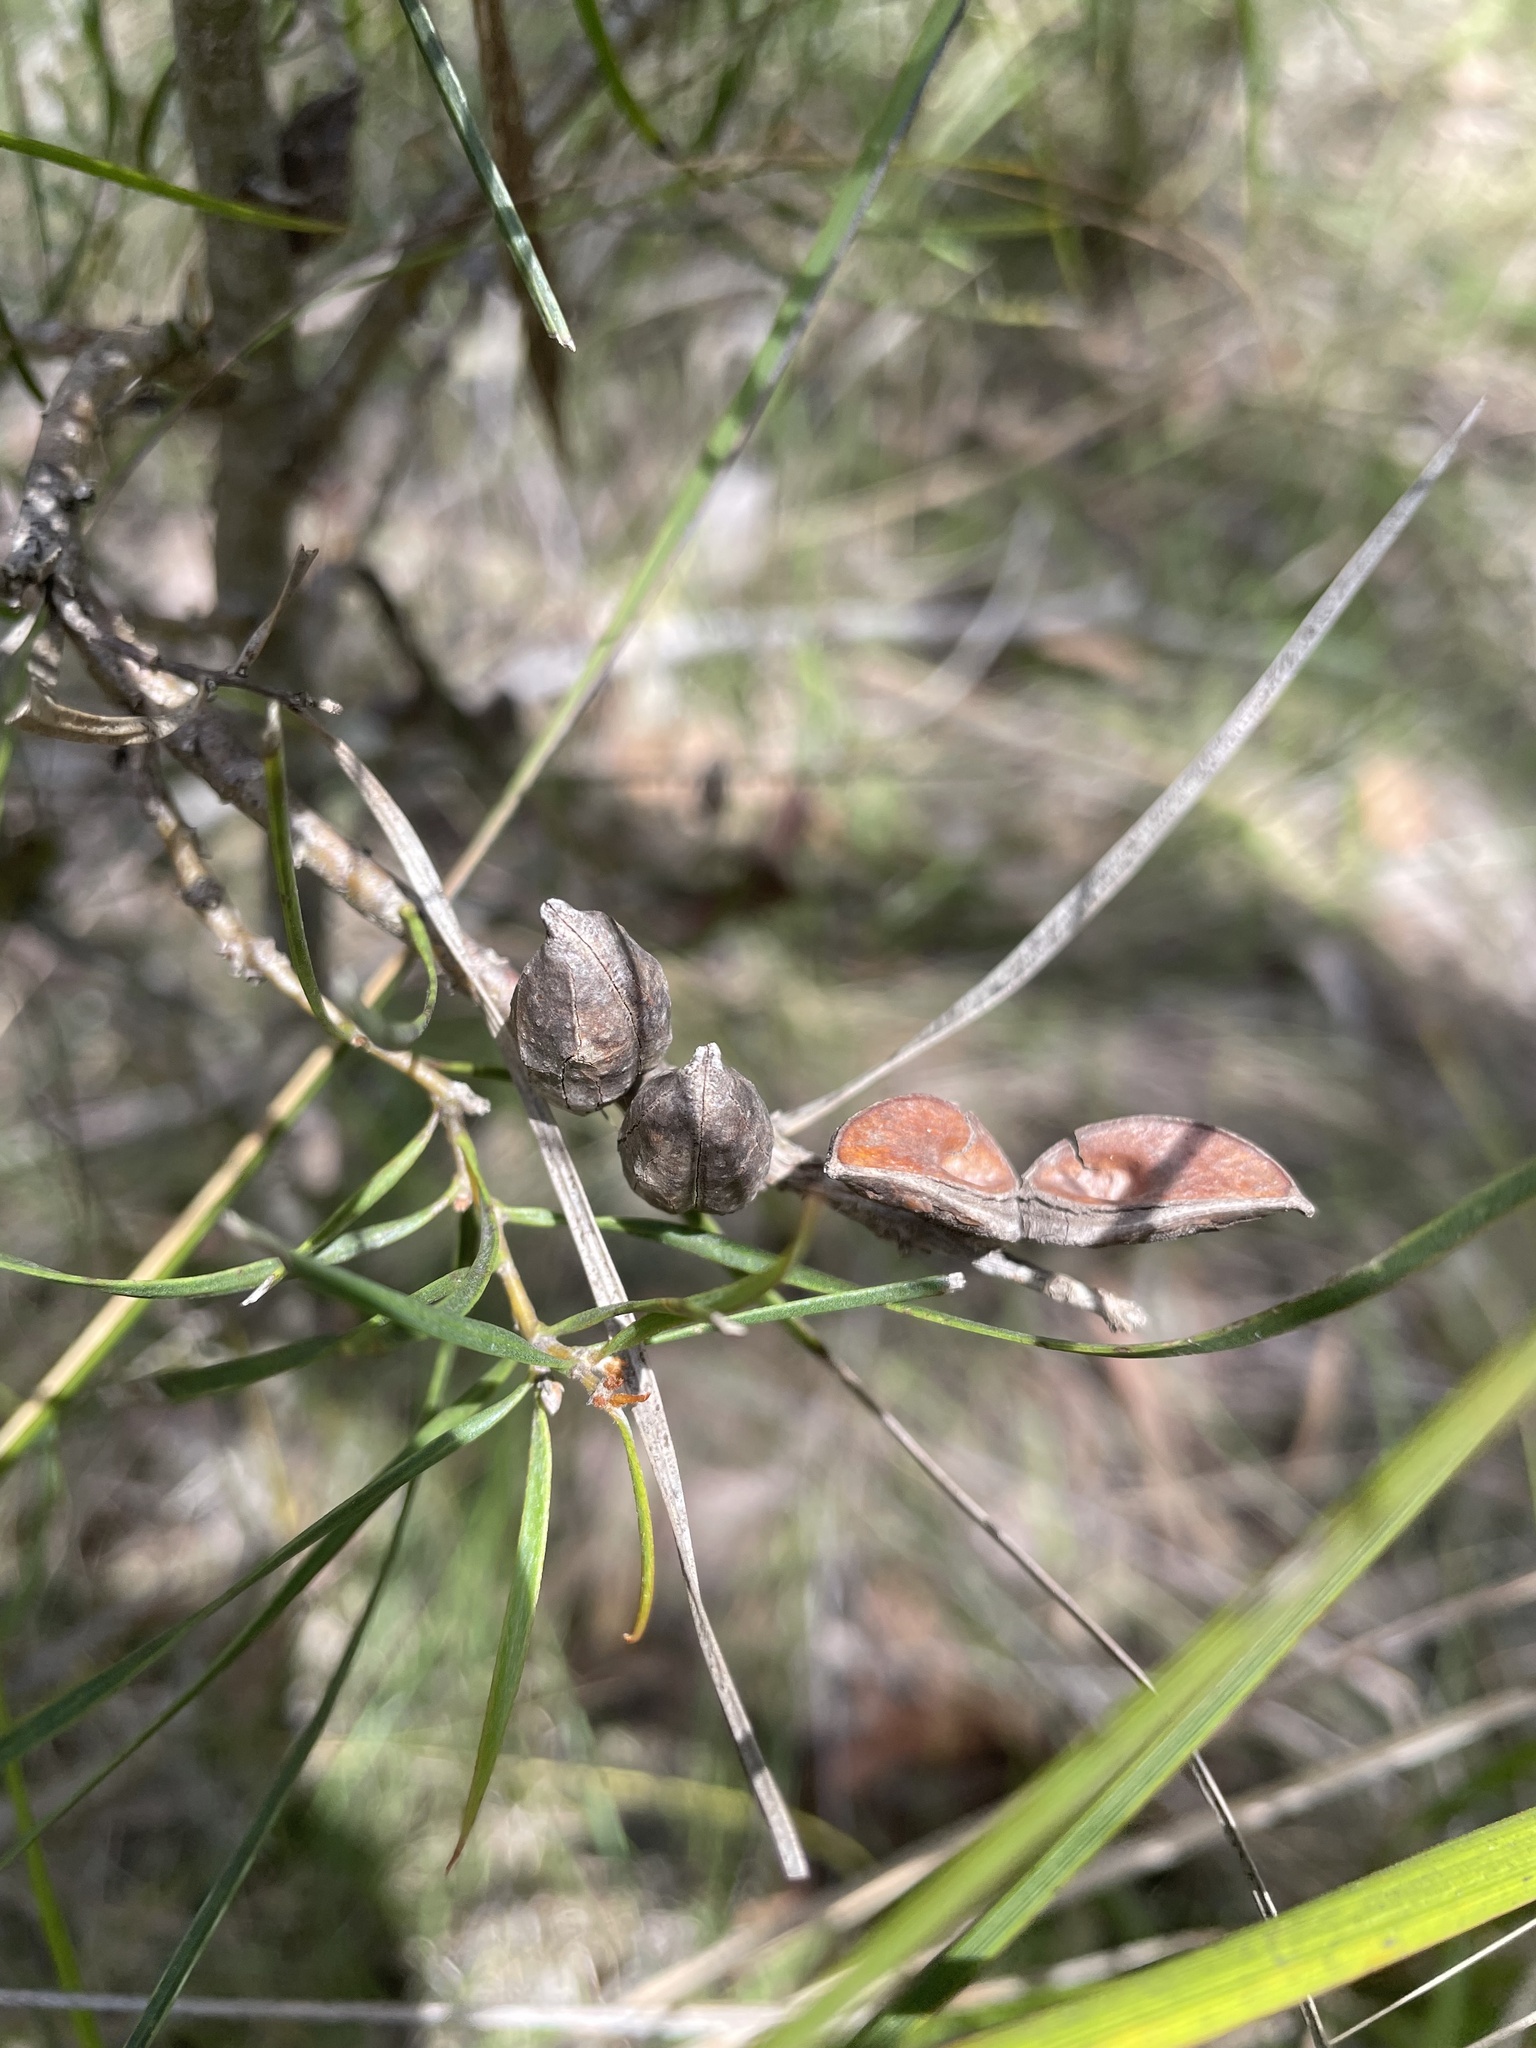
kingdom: Plantae
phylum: Tracheophyta
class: Magnoliopsida
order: Proteales
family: Proteaceae
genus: Hakea
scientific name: Hakea ulicina
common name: Furze hakea
